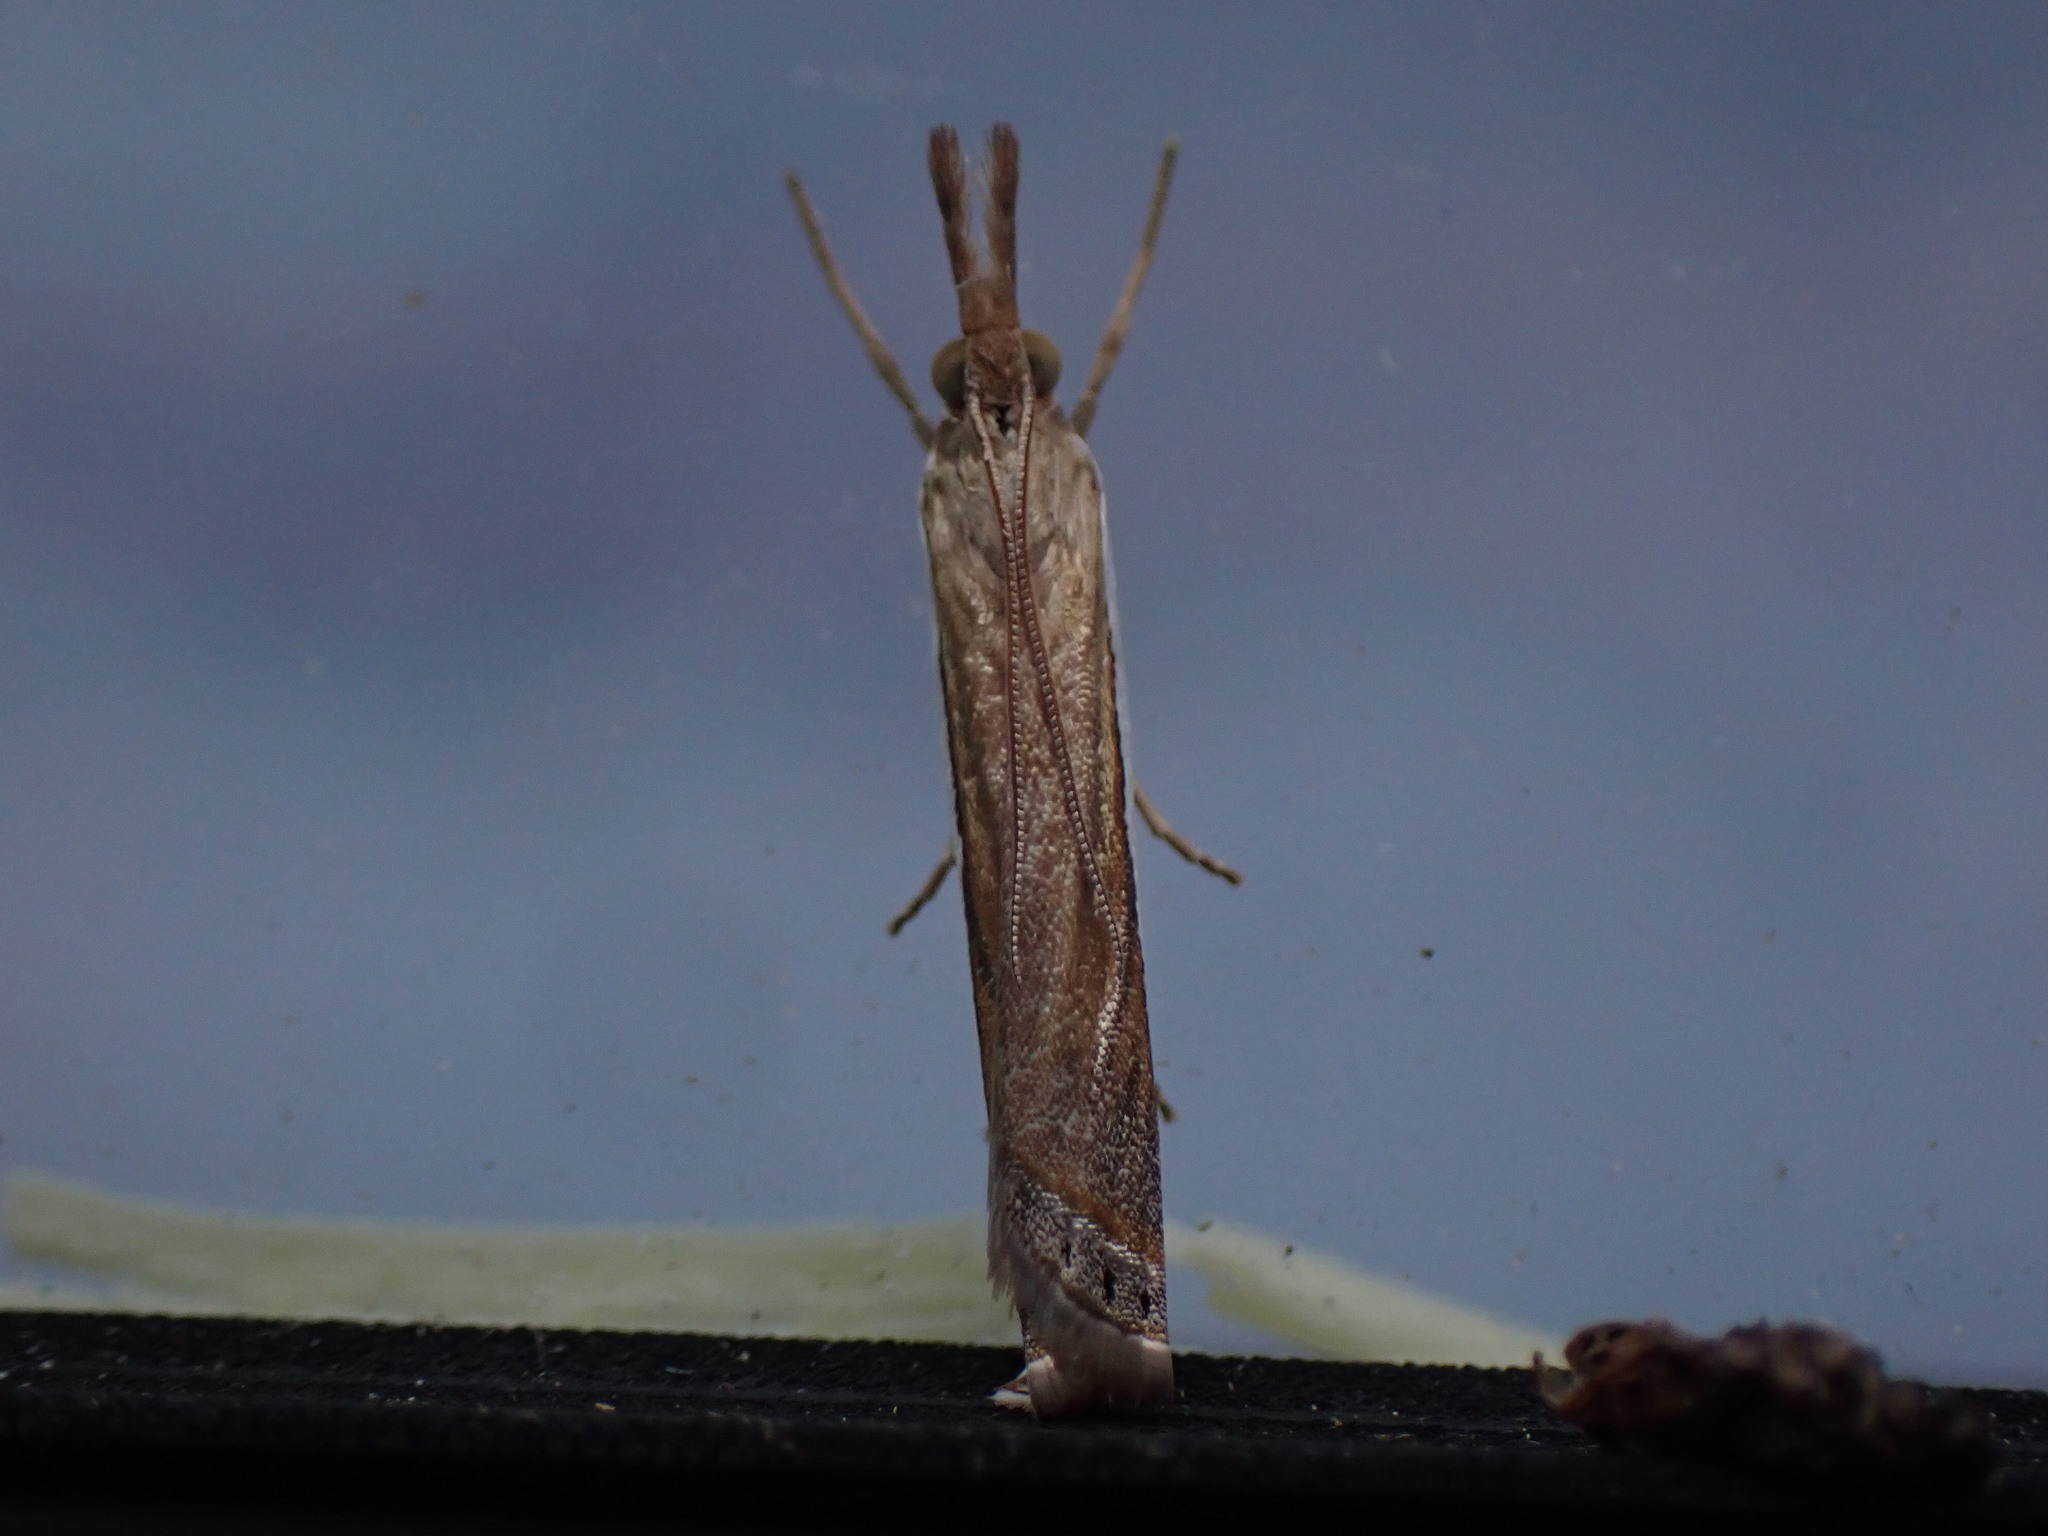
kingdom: Animalia
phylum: Arthropoda
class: Insecta
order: Lepidoptera
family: Crambidae
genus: Crambus
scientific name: Crambus
